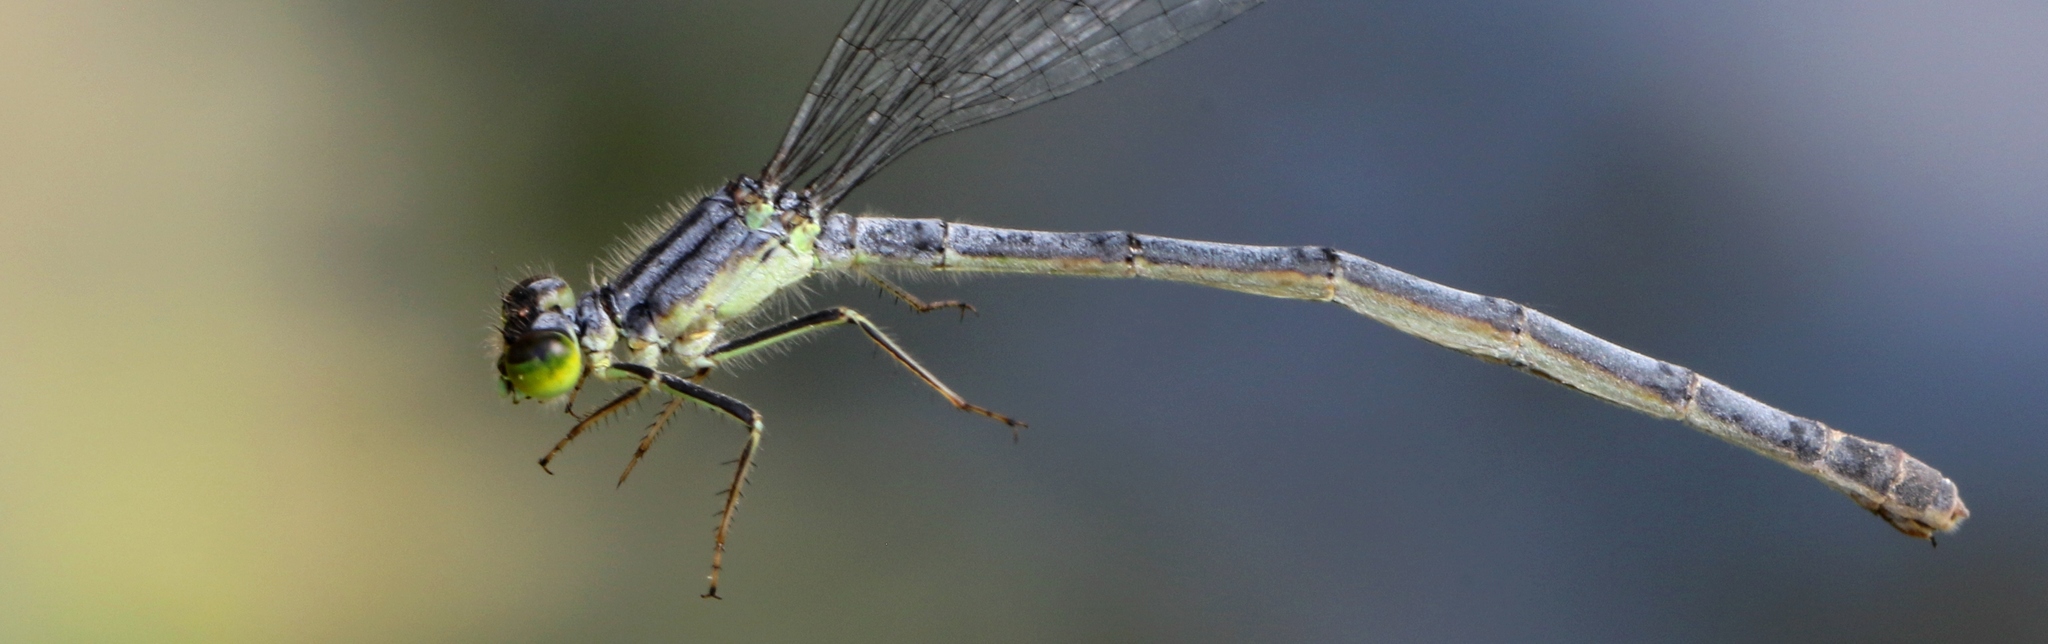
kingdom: Animalia
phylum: Arthropoda
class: Insecta
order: Odonata
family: Coenagrionidae
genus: Ischnura
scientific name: Ischnura verticalis
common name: Eastern forktail
